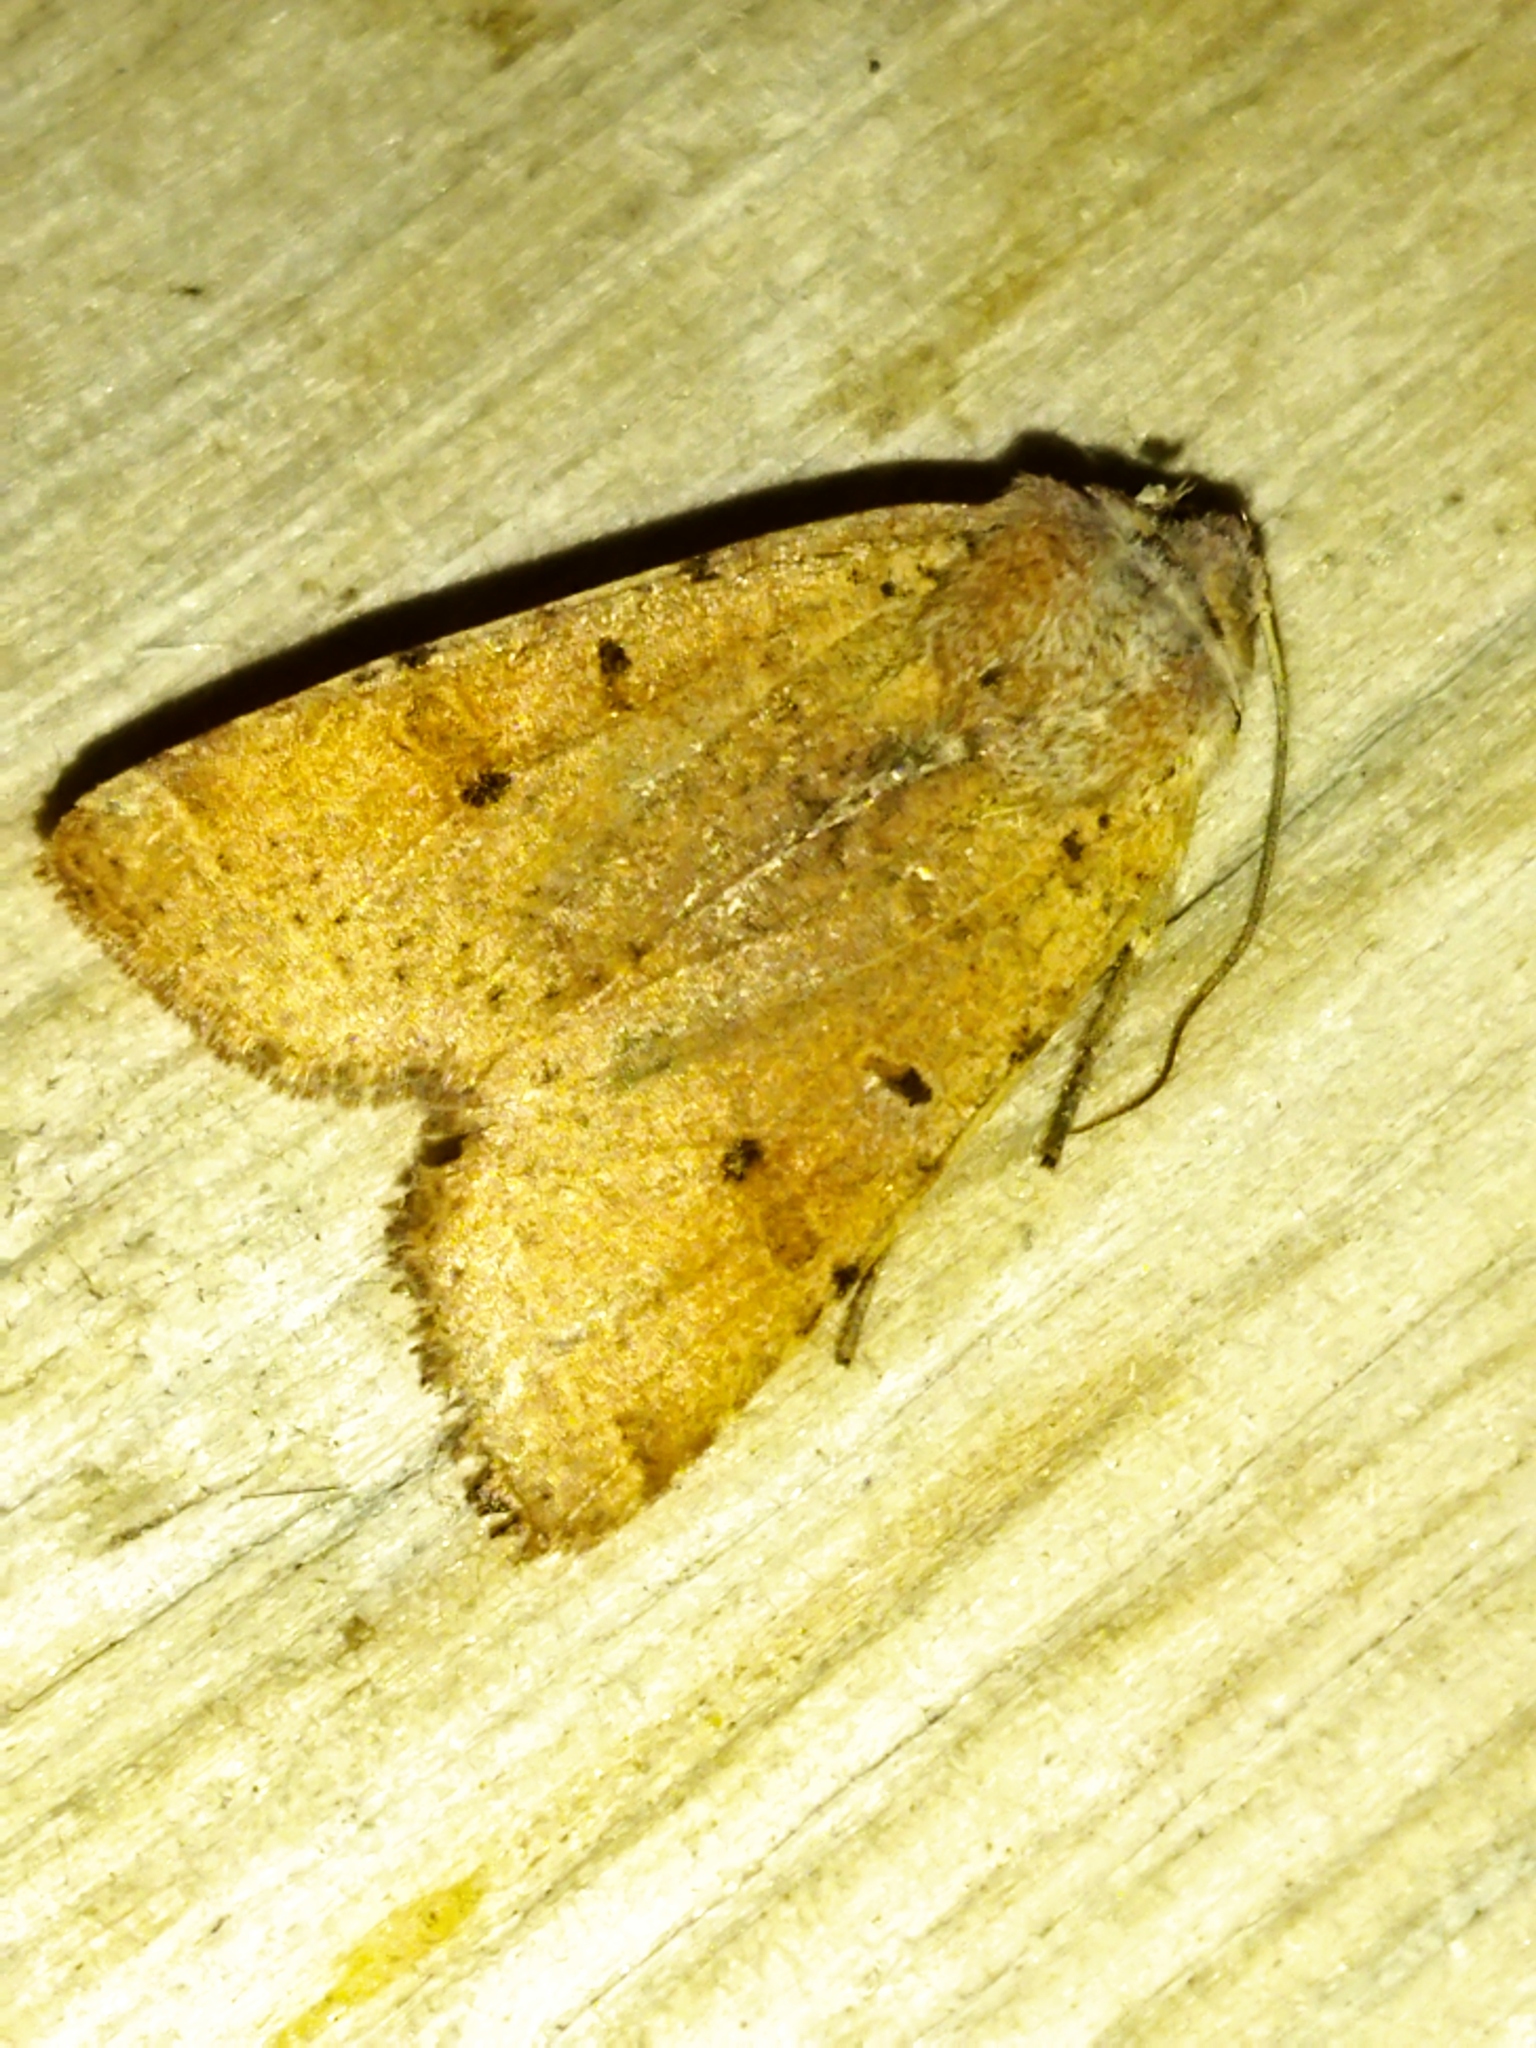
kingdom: Animalia
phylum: Arthropoda
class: Insecta
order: Lepidoptera
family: Noctuidae
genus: Agrochola
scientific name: Agrochola lychnidis
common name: Beaded chestnut
